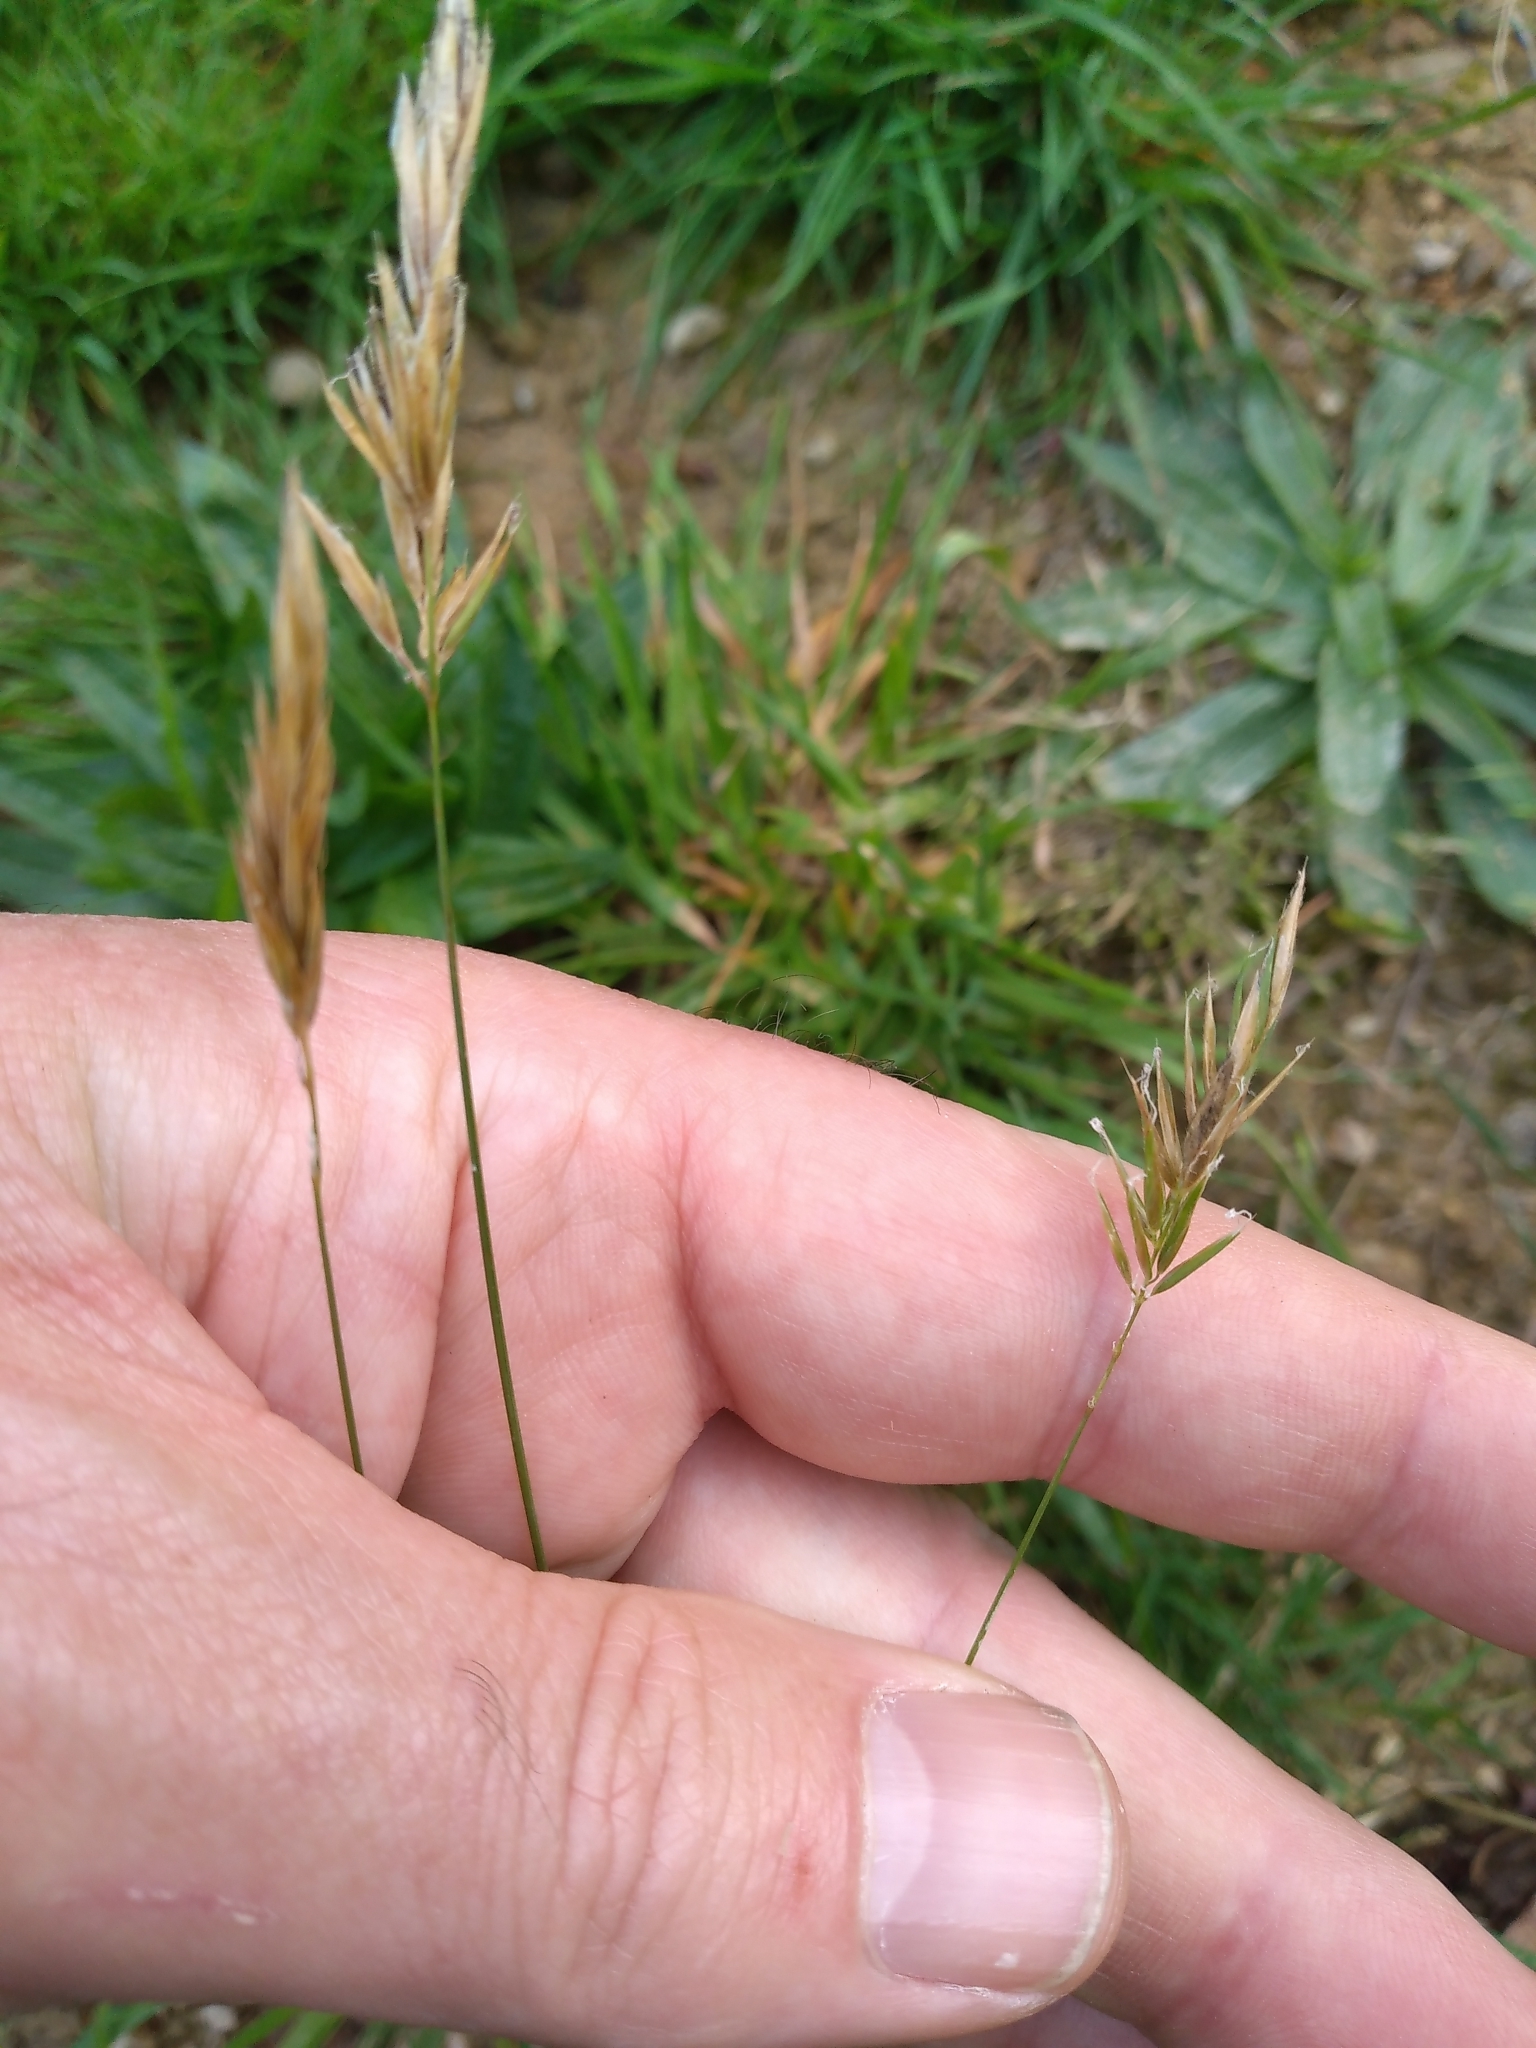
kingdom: Plantae
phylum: Tracheophyta
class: Liliopsida
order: Poales
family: Poaceae
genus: Anthoxanthum
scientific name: Anthoxanthum odoratum
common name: Sweet vernalgrass
